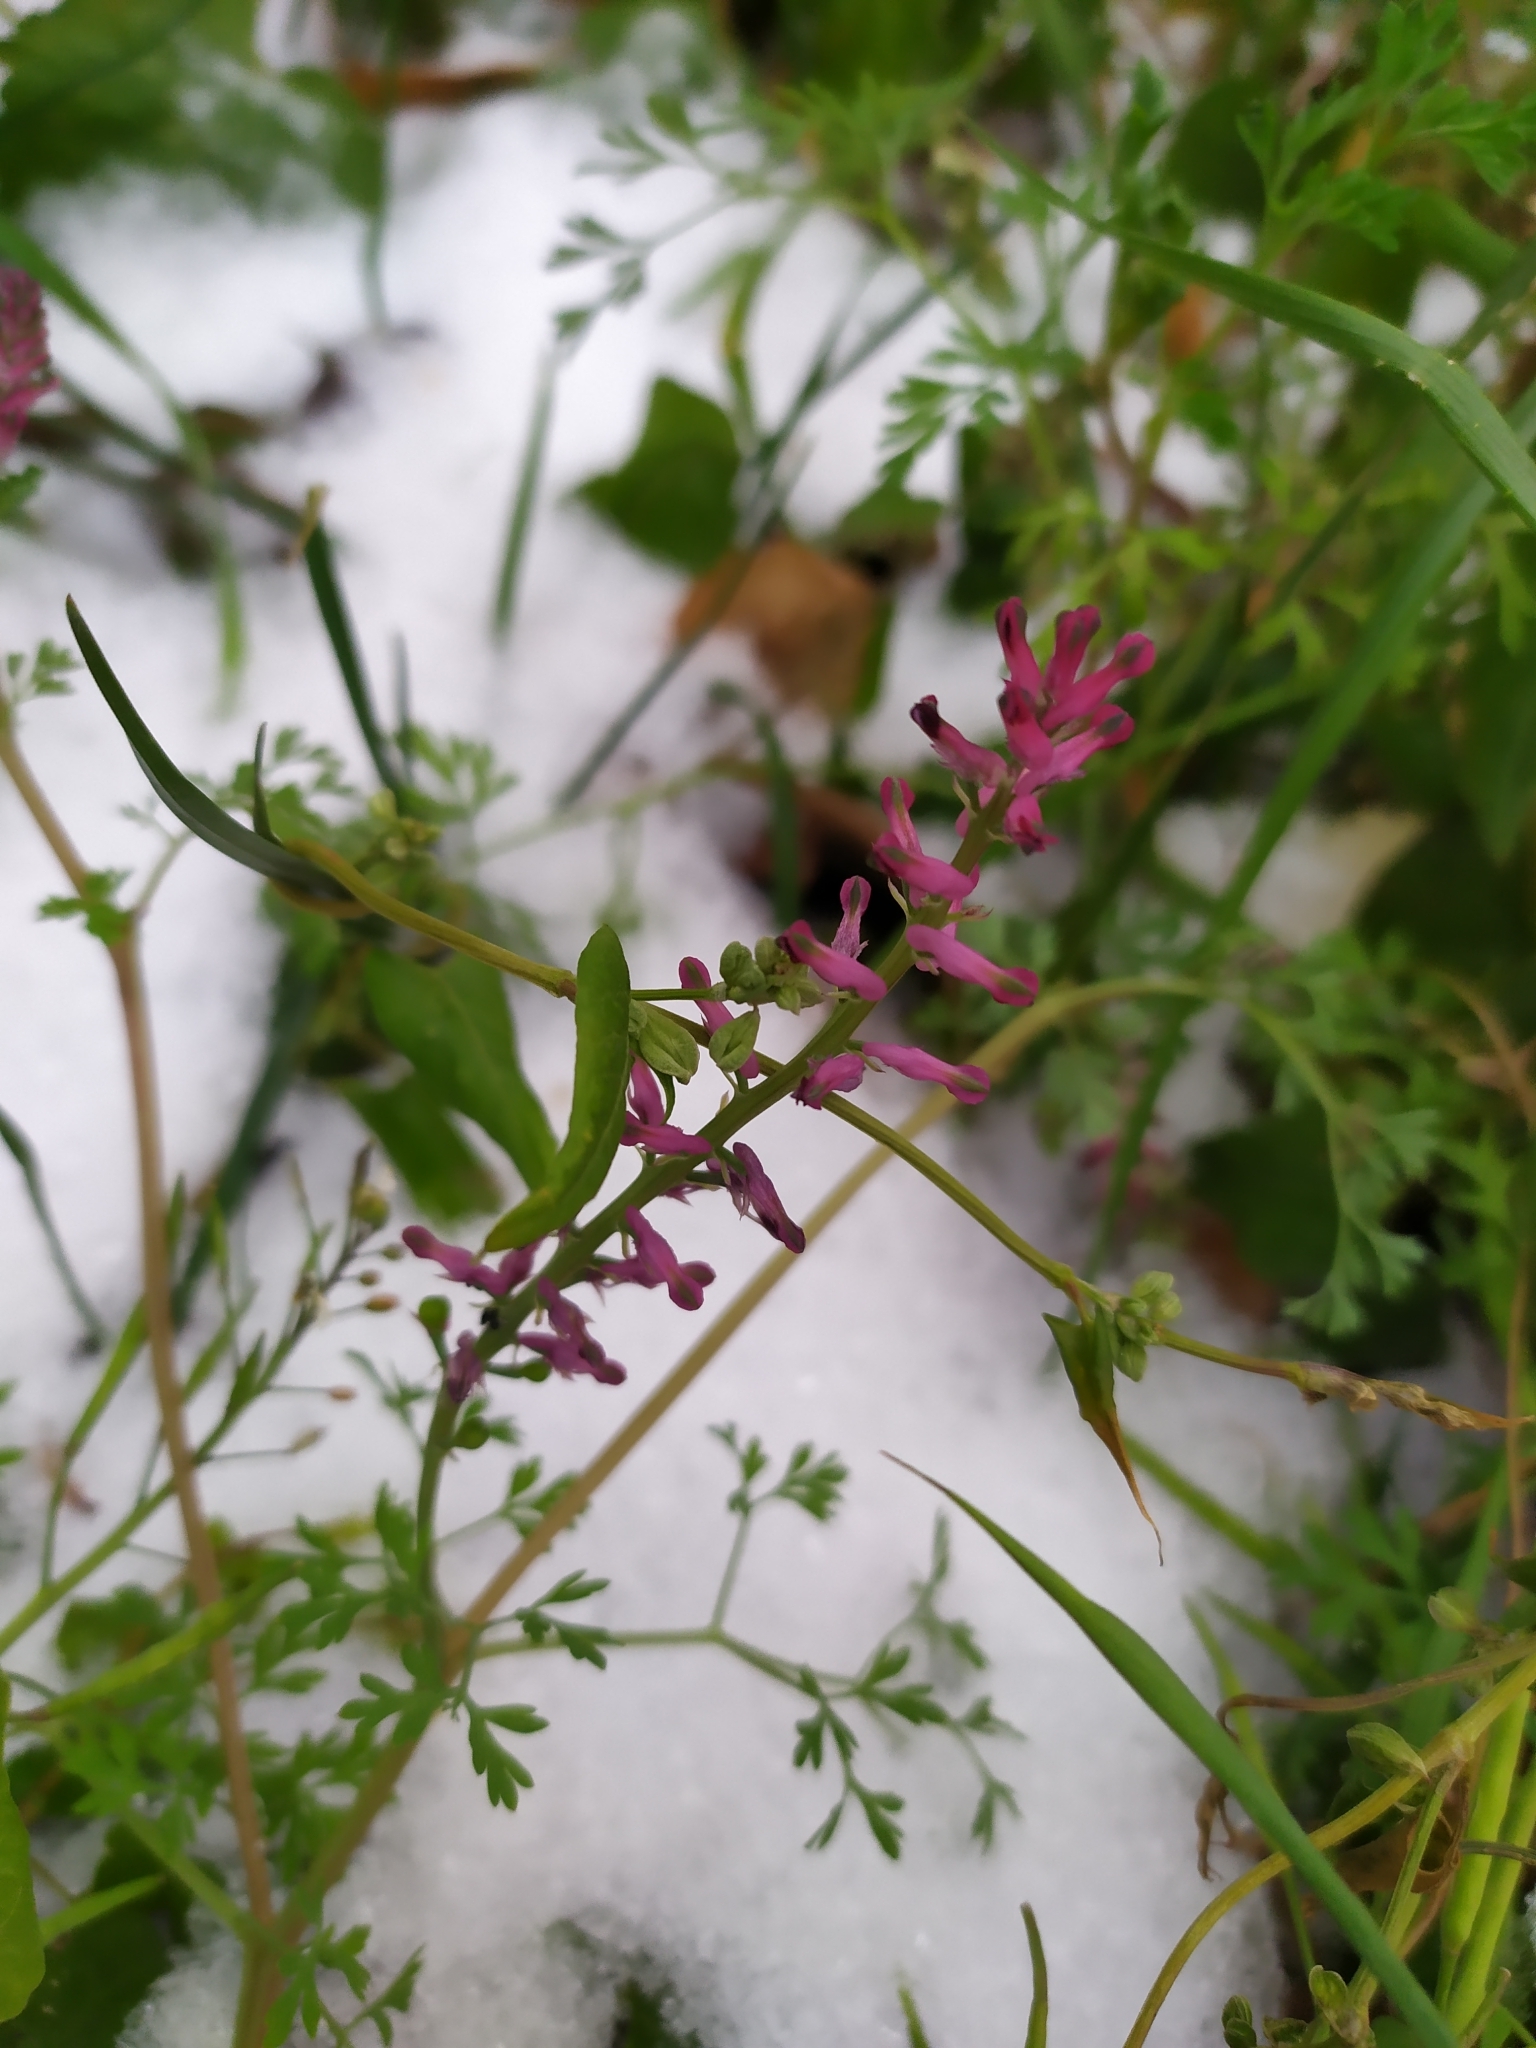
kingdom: Plantae
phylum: Tracheophyta
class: Magnoliopsida
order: Ranunculales
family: Papaveraceae
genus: Fumaria
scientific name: Fumaria officinalis
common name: Common fumitory
